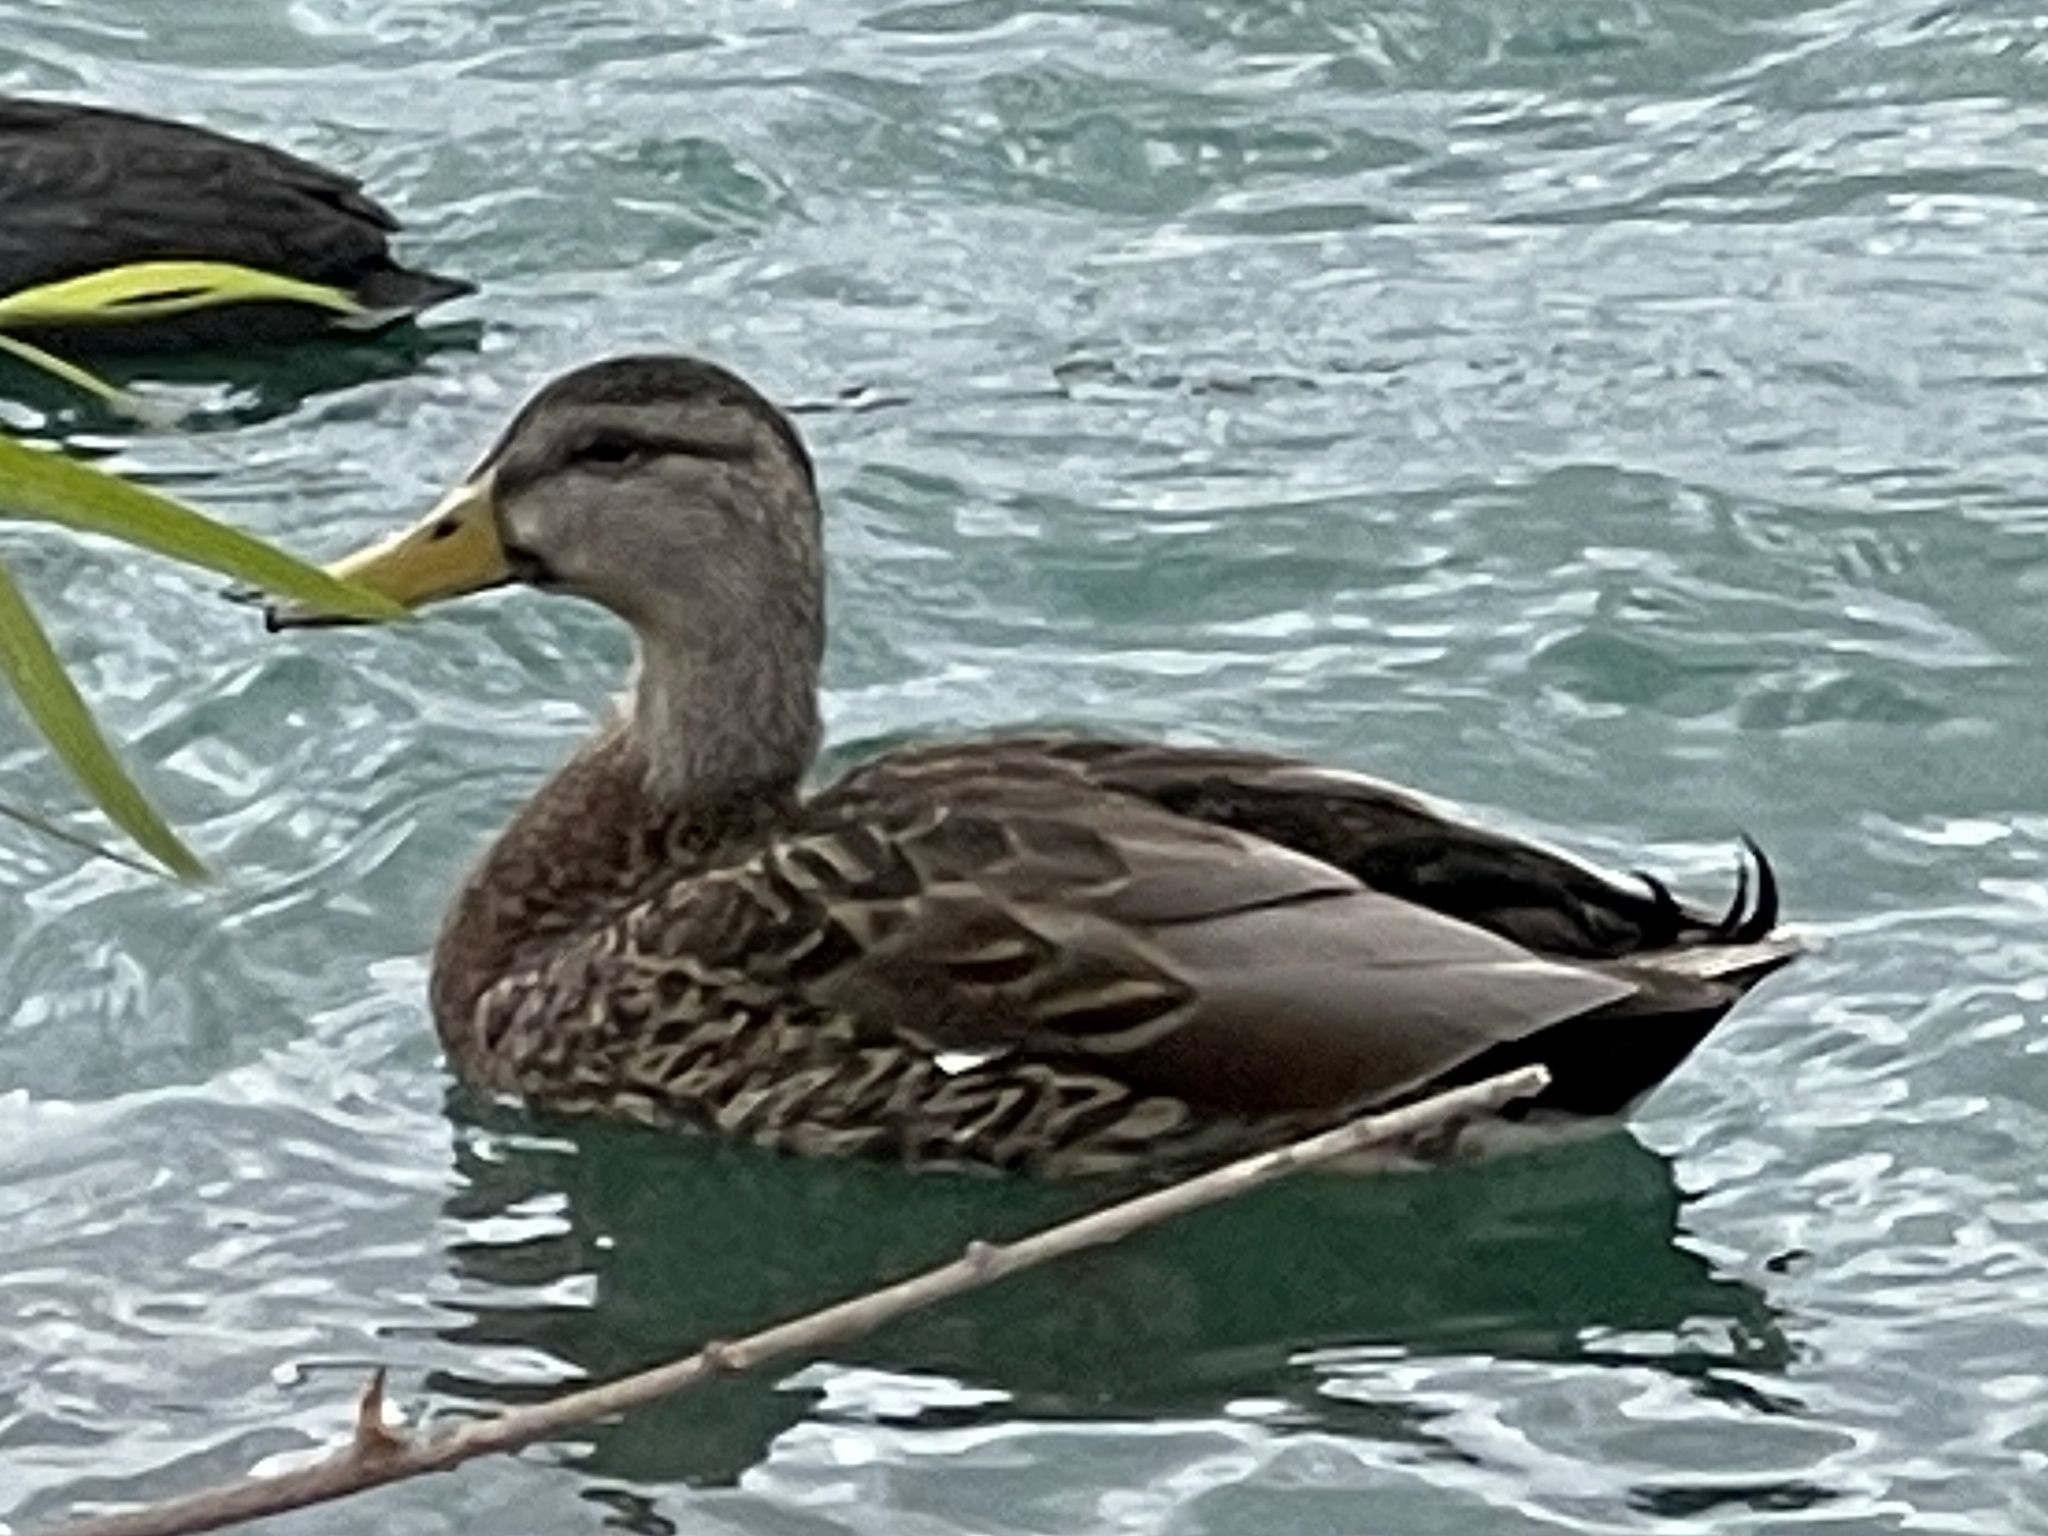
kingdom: Animalia
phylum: Chordata
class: Aves
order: Anseriformes
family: Anatidae
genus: Anas
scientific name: Anas
